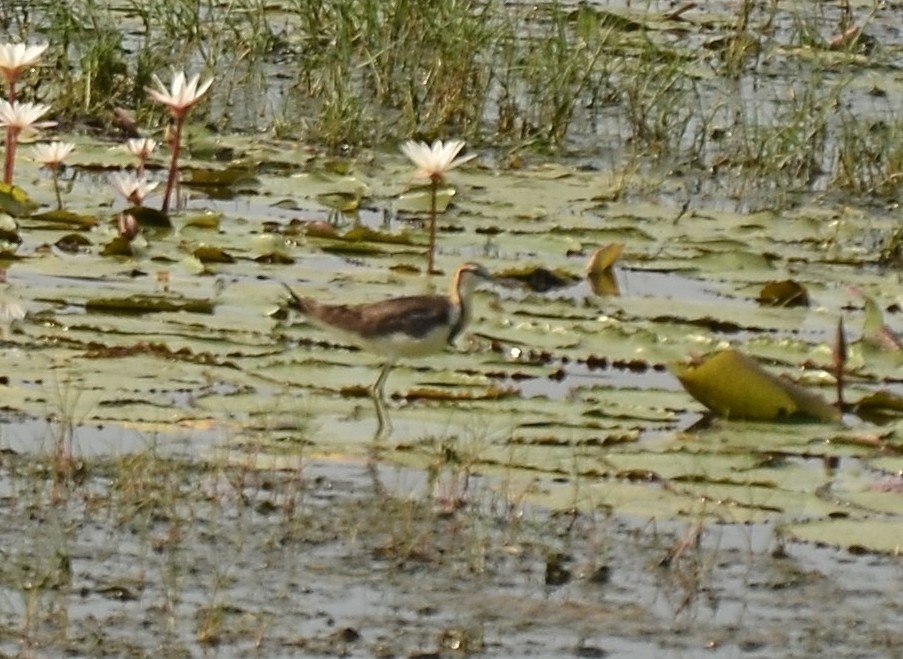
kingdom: Animalia
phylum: Chordata
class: Aves
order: Charadriiformes
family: Jacanidae
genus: Hydrophasianus
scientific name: Hydrophasianus chirurgus
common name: Pheasant-tailed jacana
